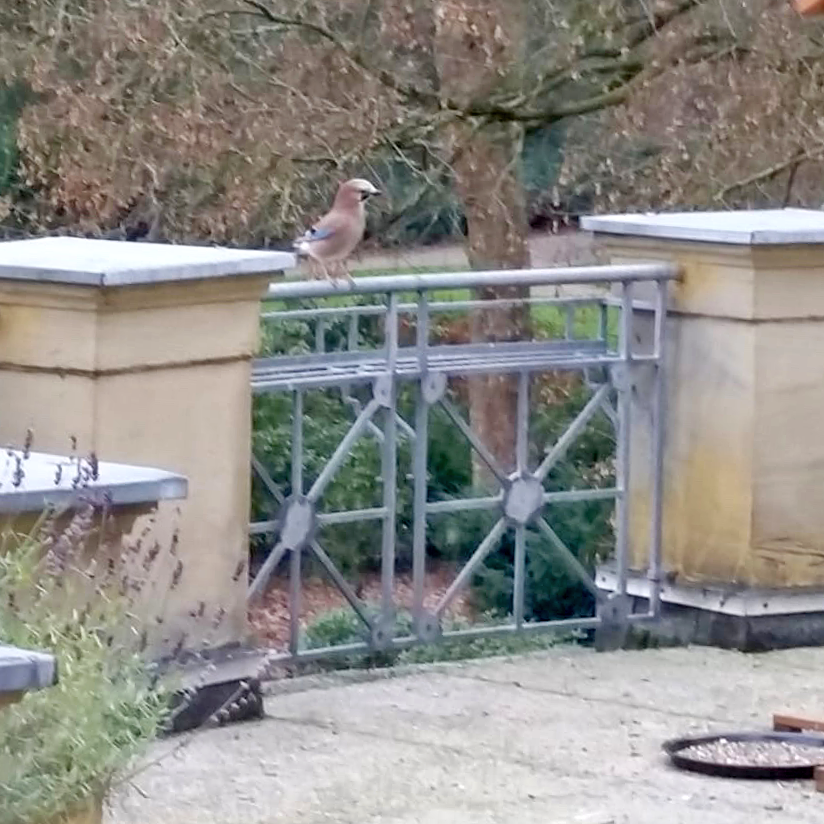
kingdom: Animalia
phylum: Chordata
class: Aves
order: Passeriformes
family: Corvidae
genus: Garrulus
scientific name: Garrulus glandarius
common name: Eurasian jay
